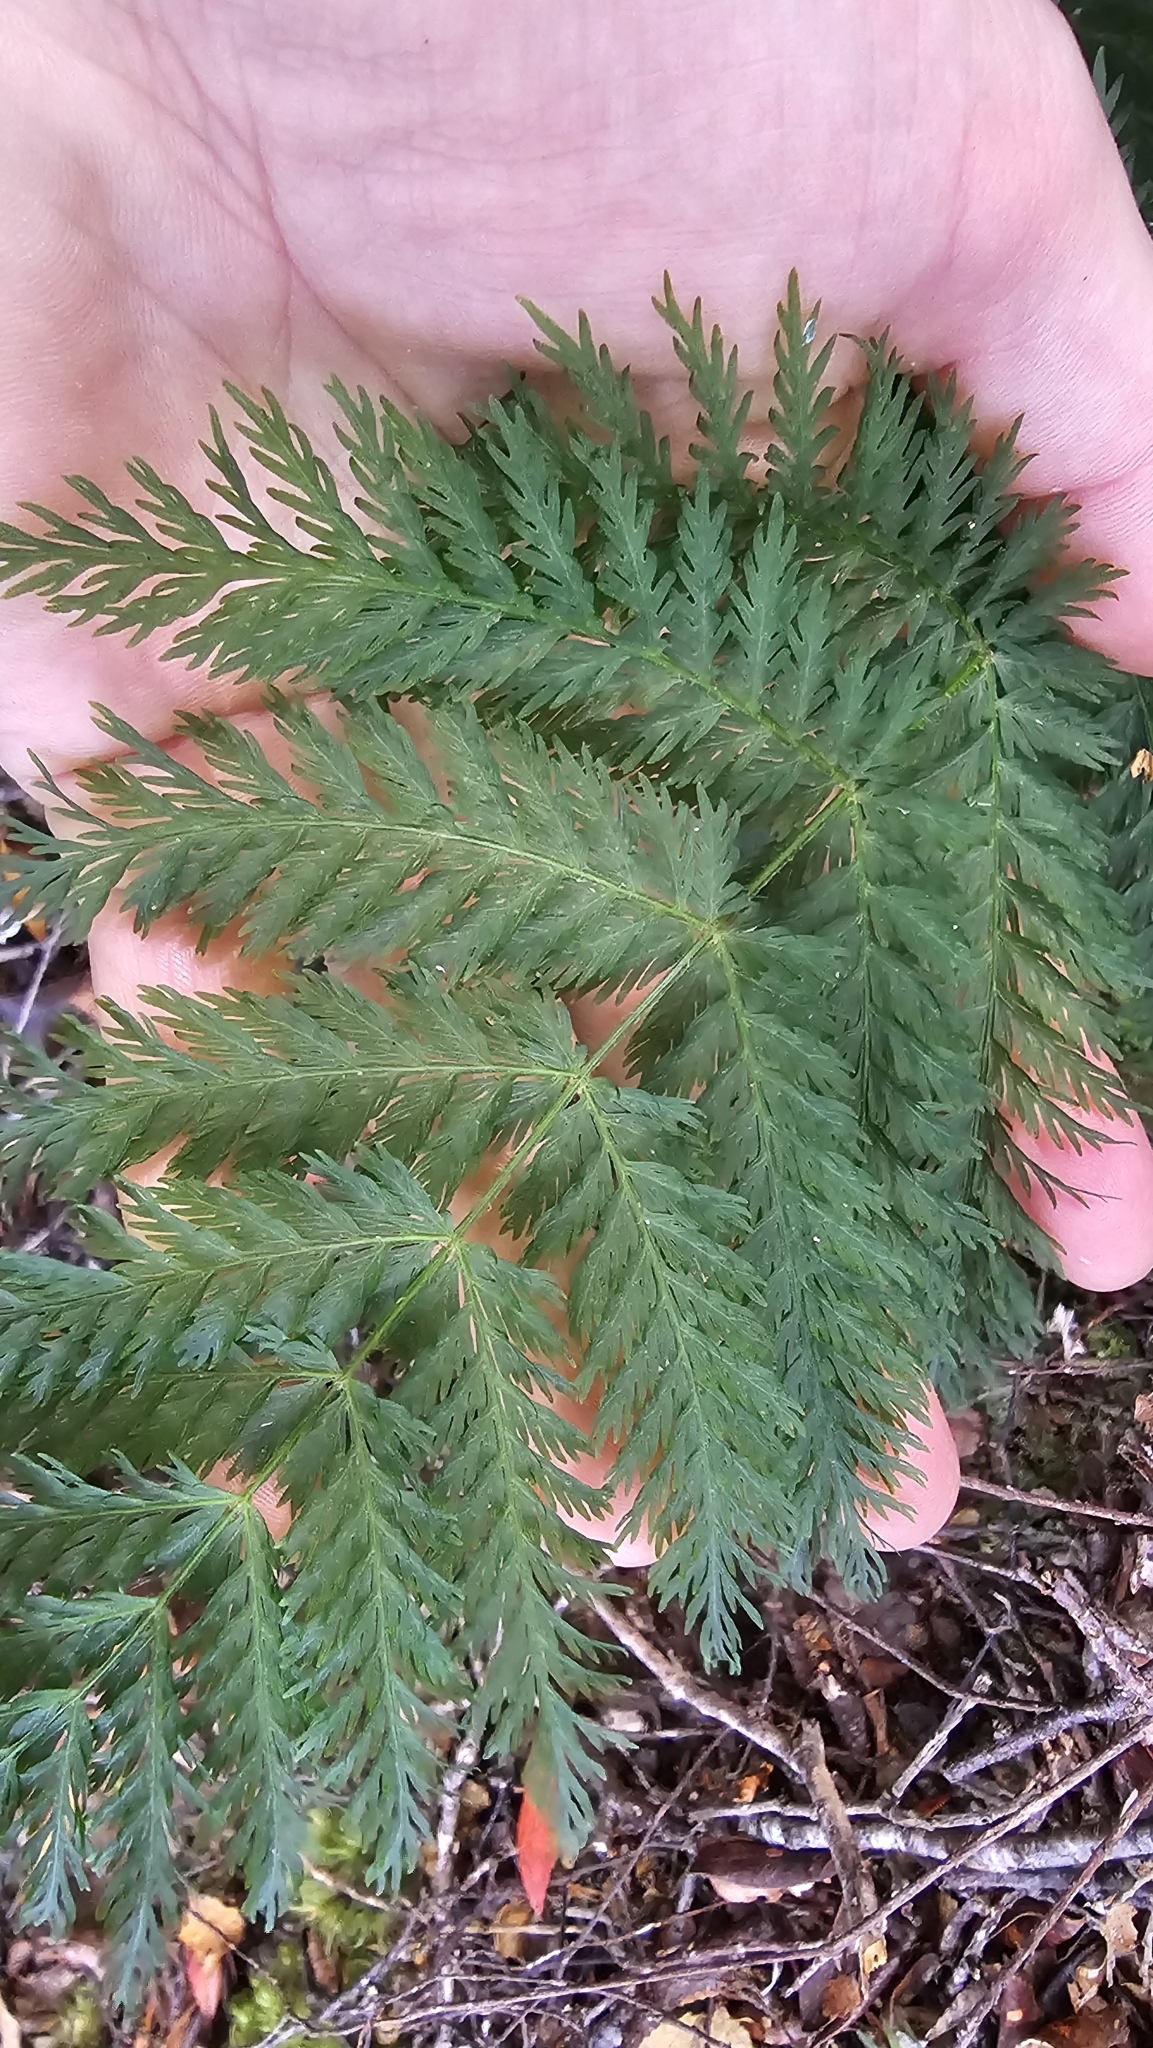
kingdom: Plantae
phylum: Tracheophyta
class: Polypodiopsida
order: Osmundales
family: Osmundaceae
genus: Leptopteris
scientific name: Leptopteris hymenophylloides
